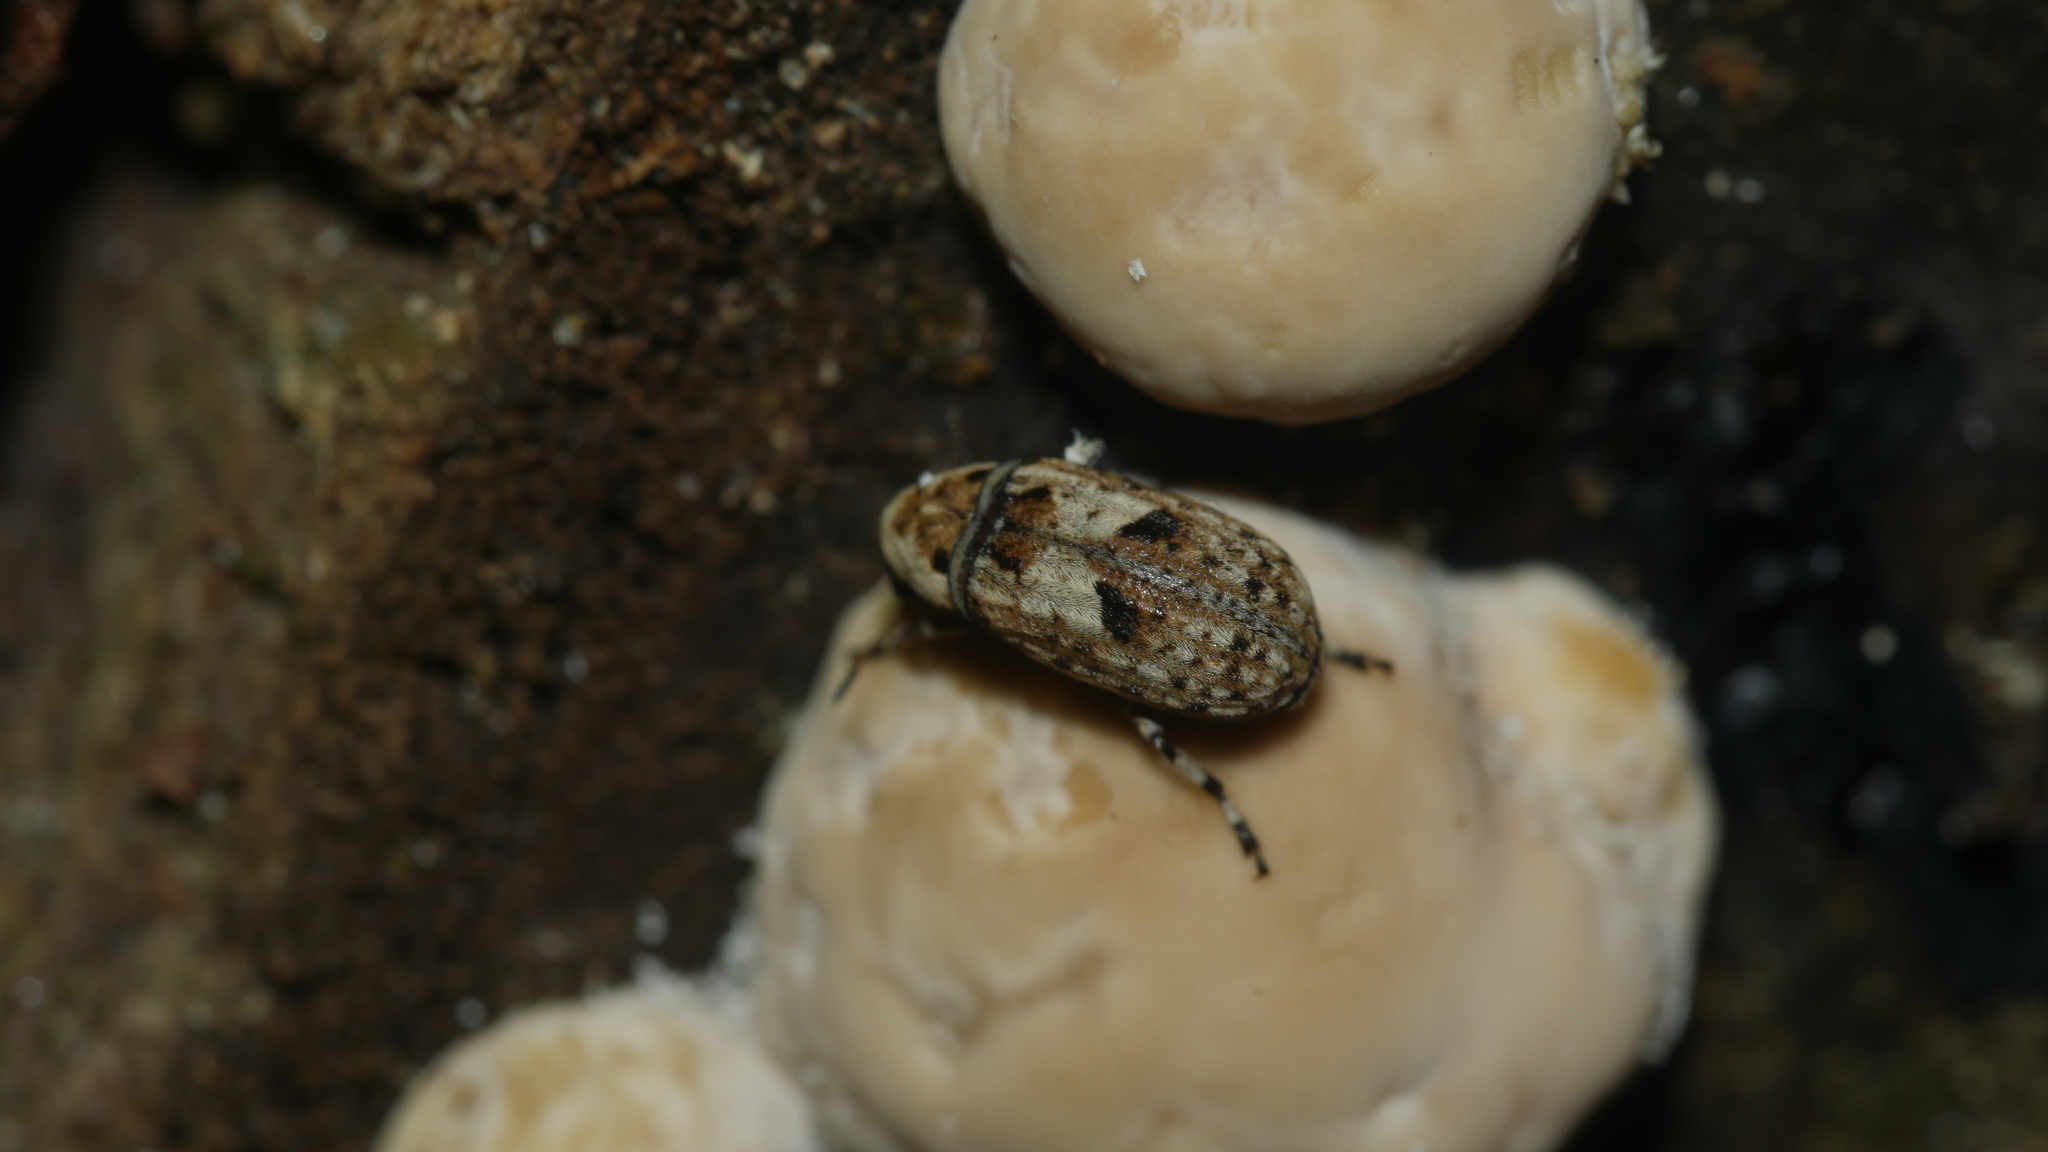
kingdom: Animalia
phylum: Arthropoda
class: Insecta
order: Coleoptera
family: Anthribidae
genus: Euparius
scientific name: Euparius marmoreus
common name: Marbled fungus weevil
